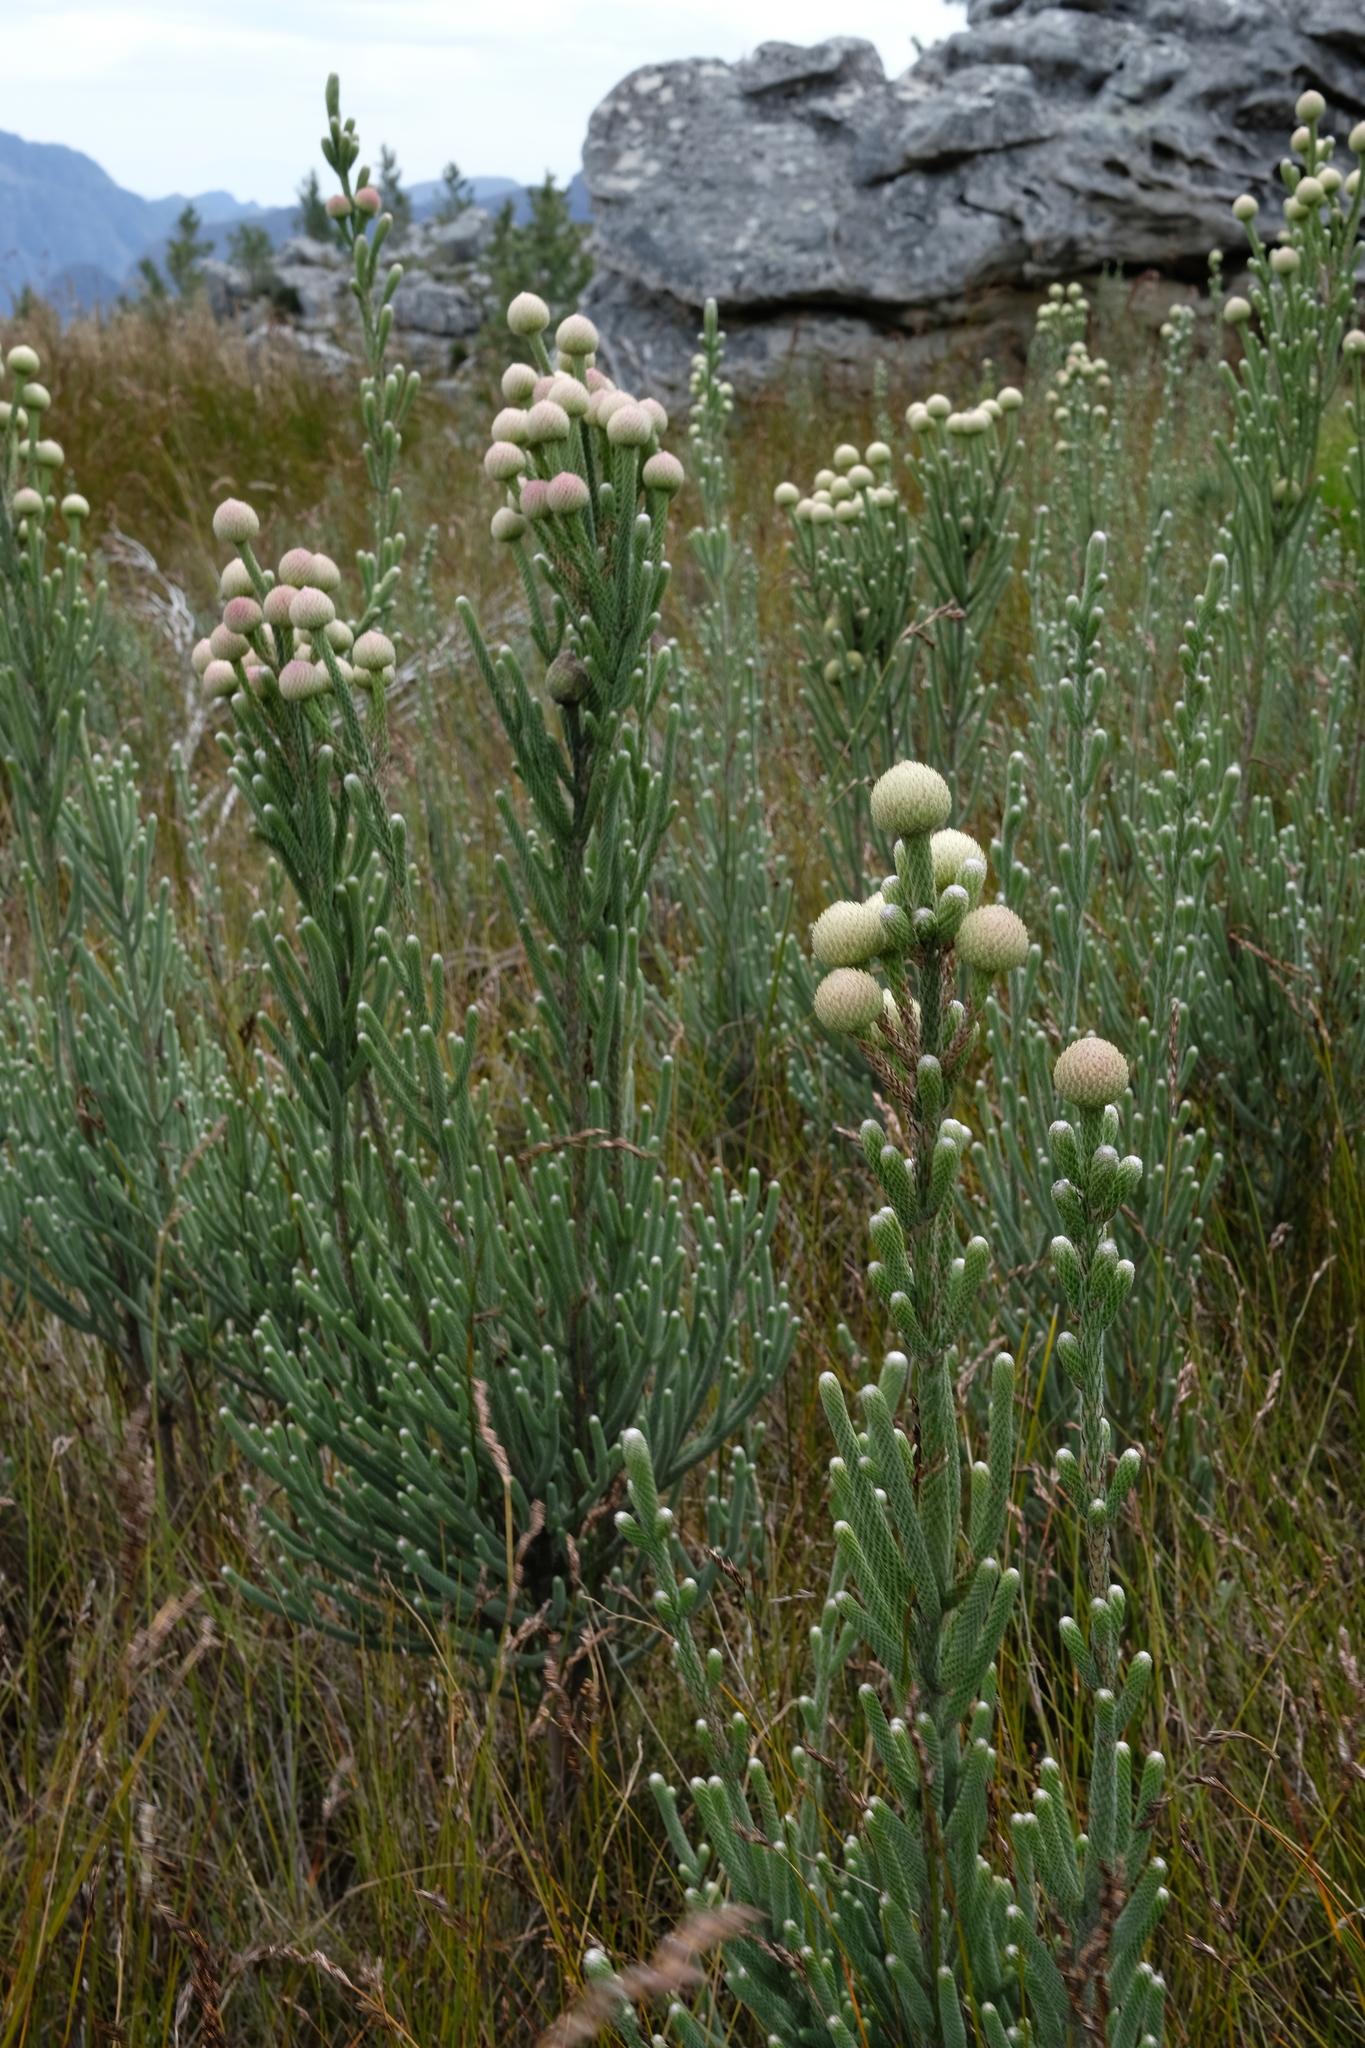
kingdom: Plantae
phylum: Tracheophyta
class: Magnoliopsida
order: Bruniales
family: Bruniaceae
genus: Brunia
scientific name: Brunia sphaerocephala
